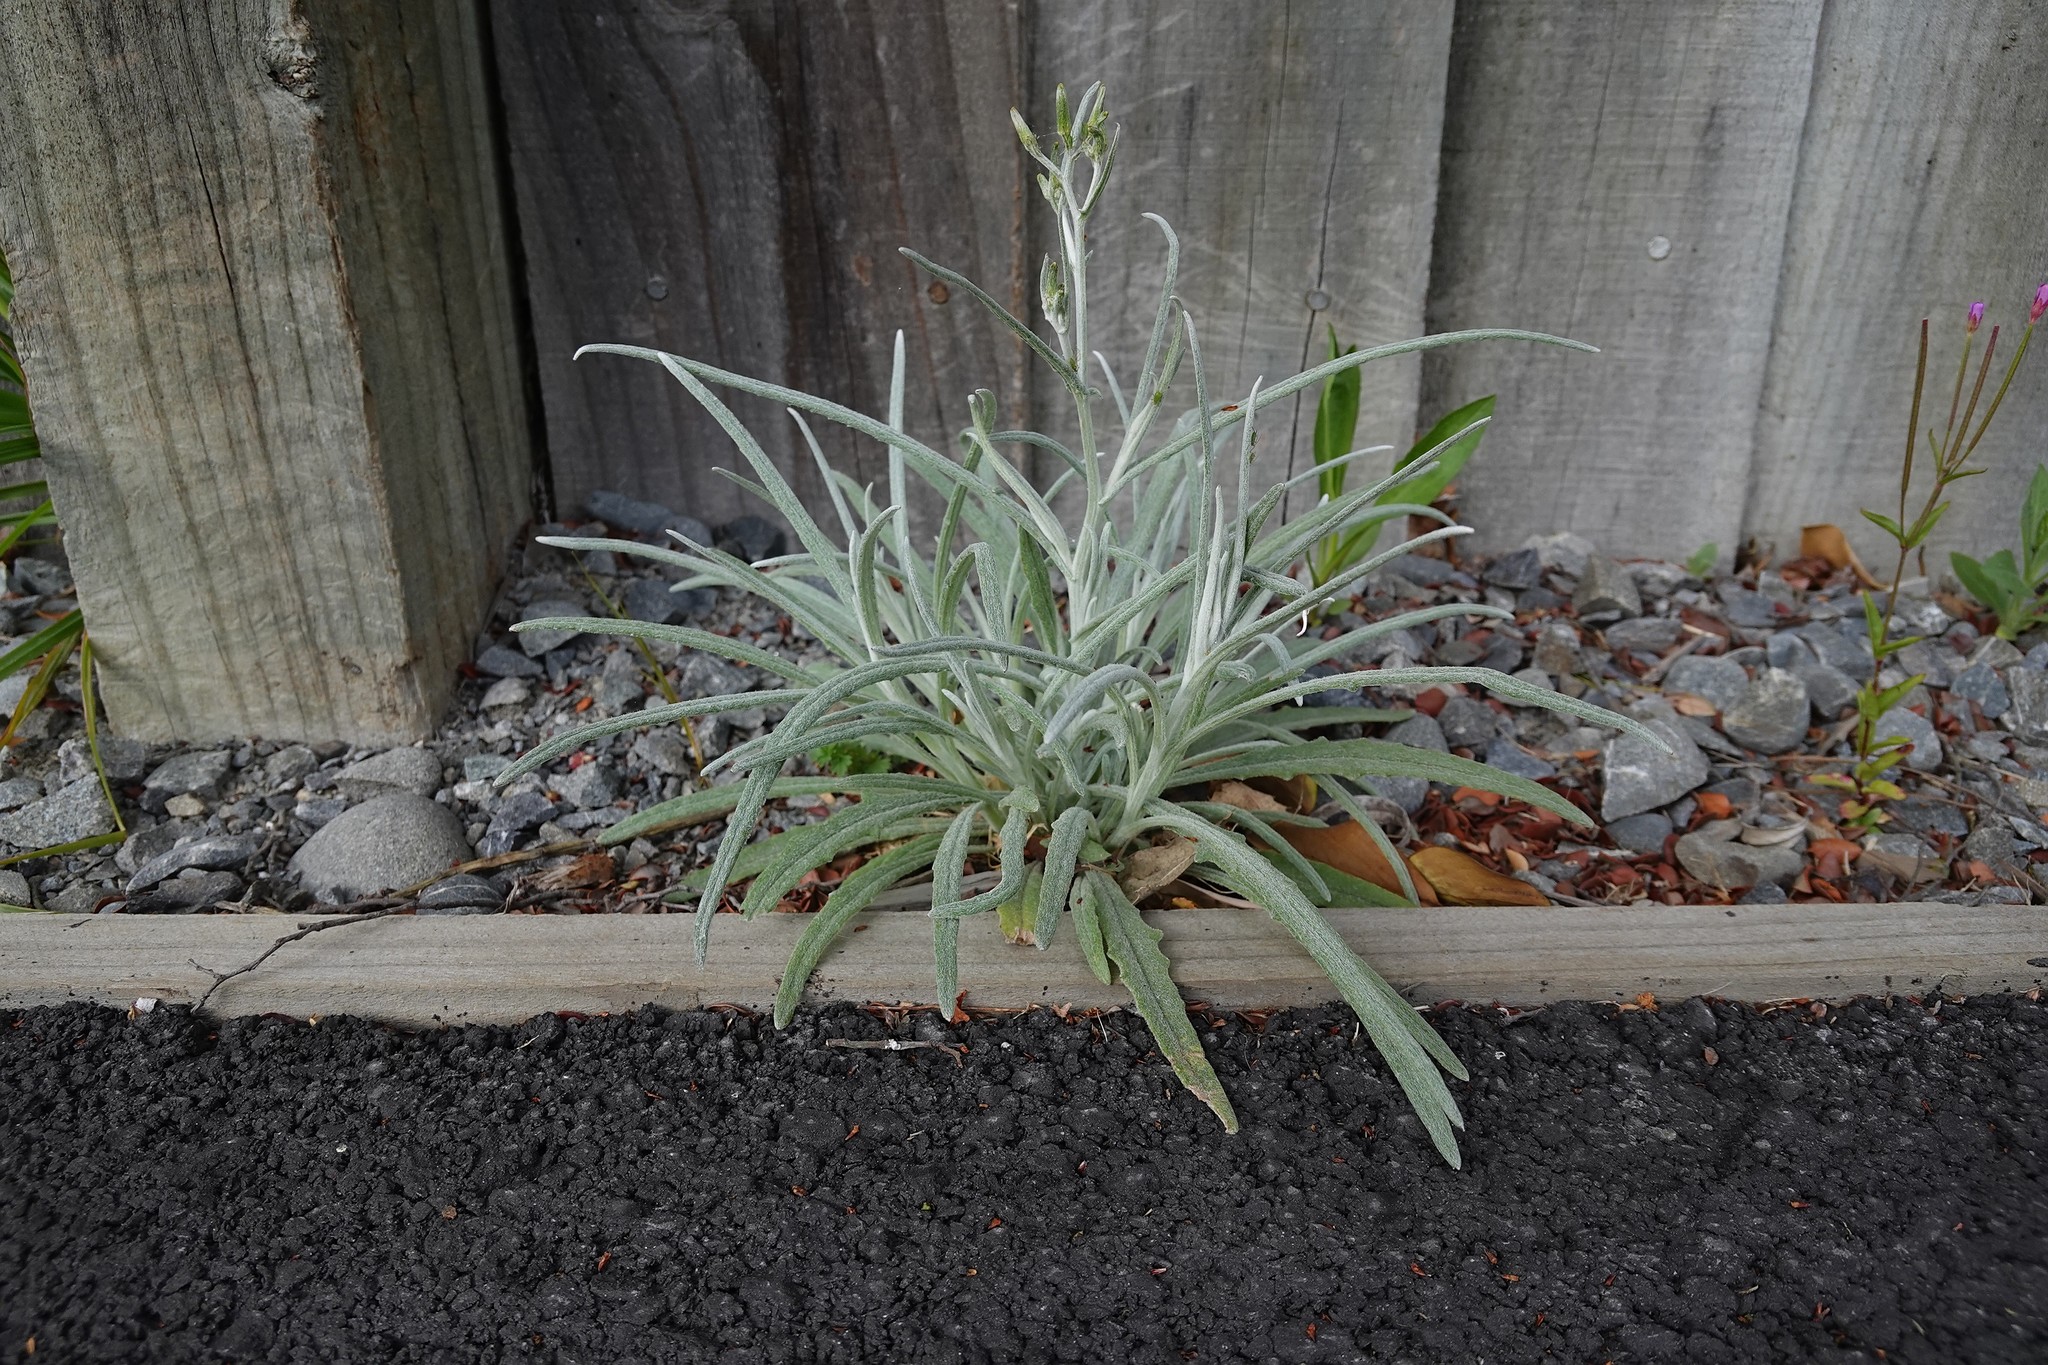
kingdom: Plantae
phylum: Tracheophyta
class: Magnoliopsida
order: Asterales
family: Asteraceae
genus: Senecio
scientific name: Senecio quadridentatus
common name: Cotton fireweed
